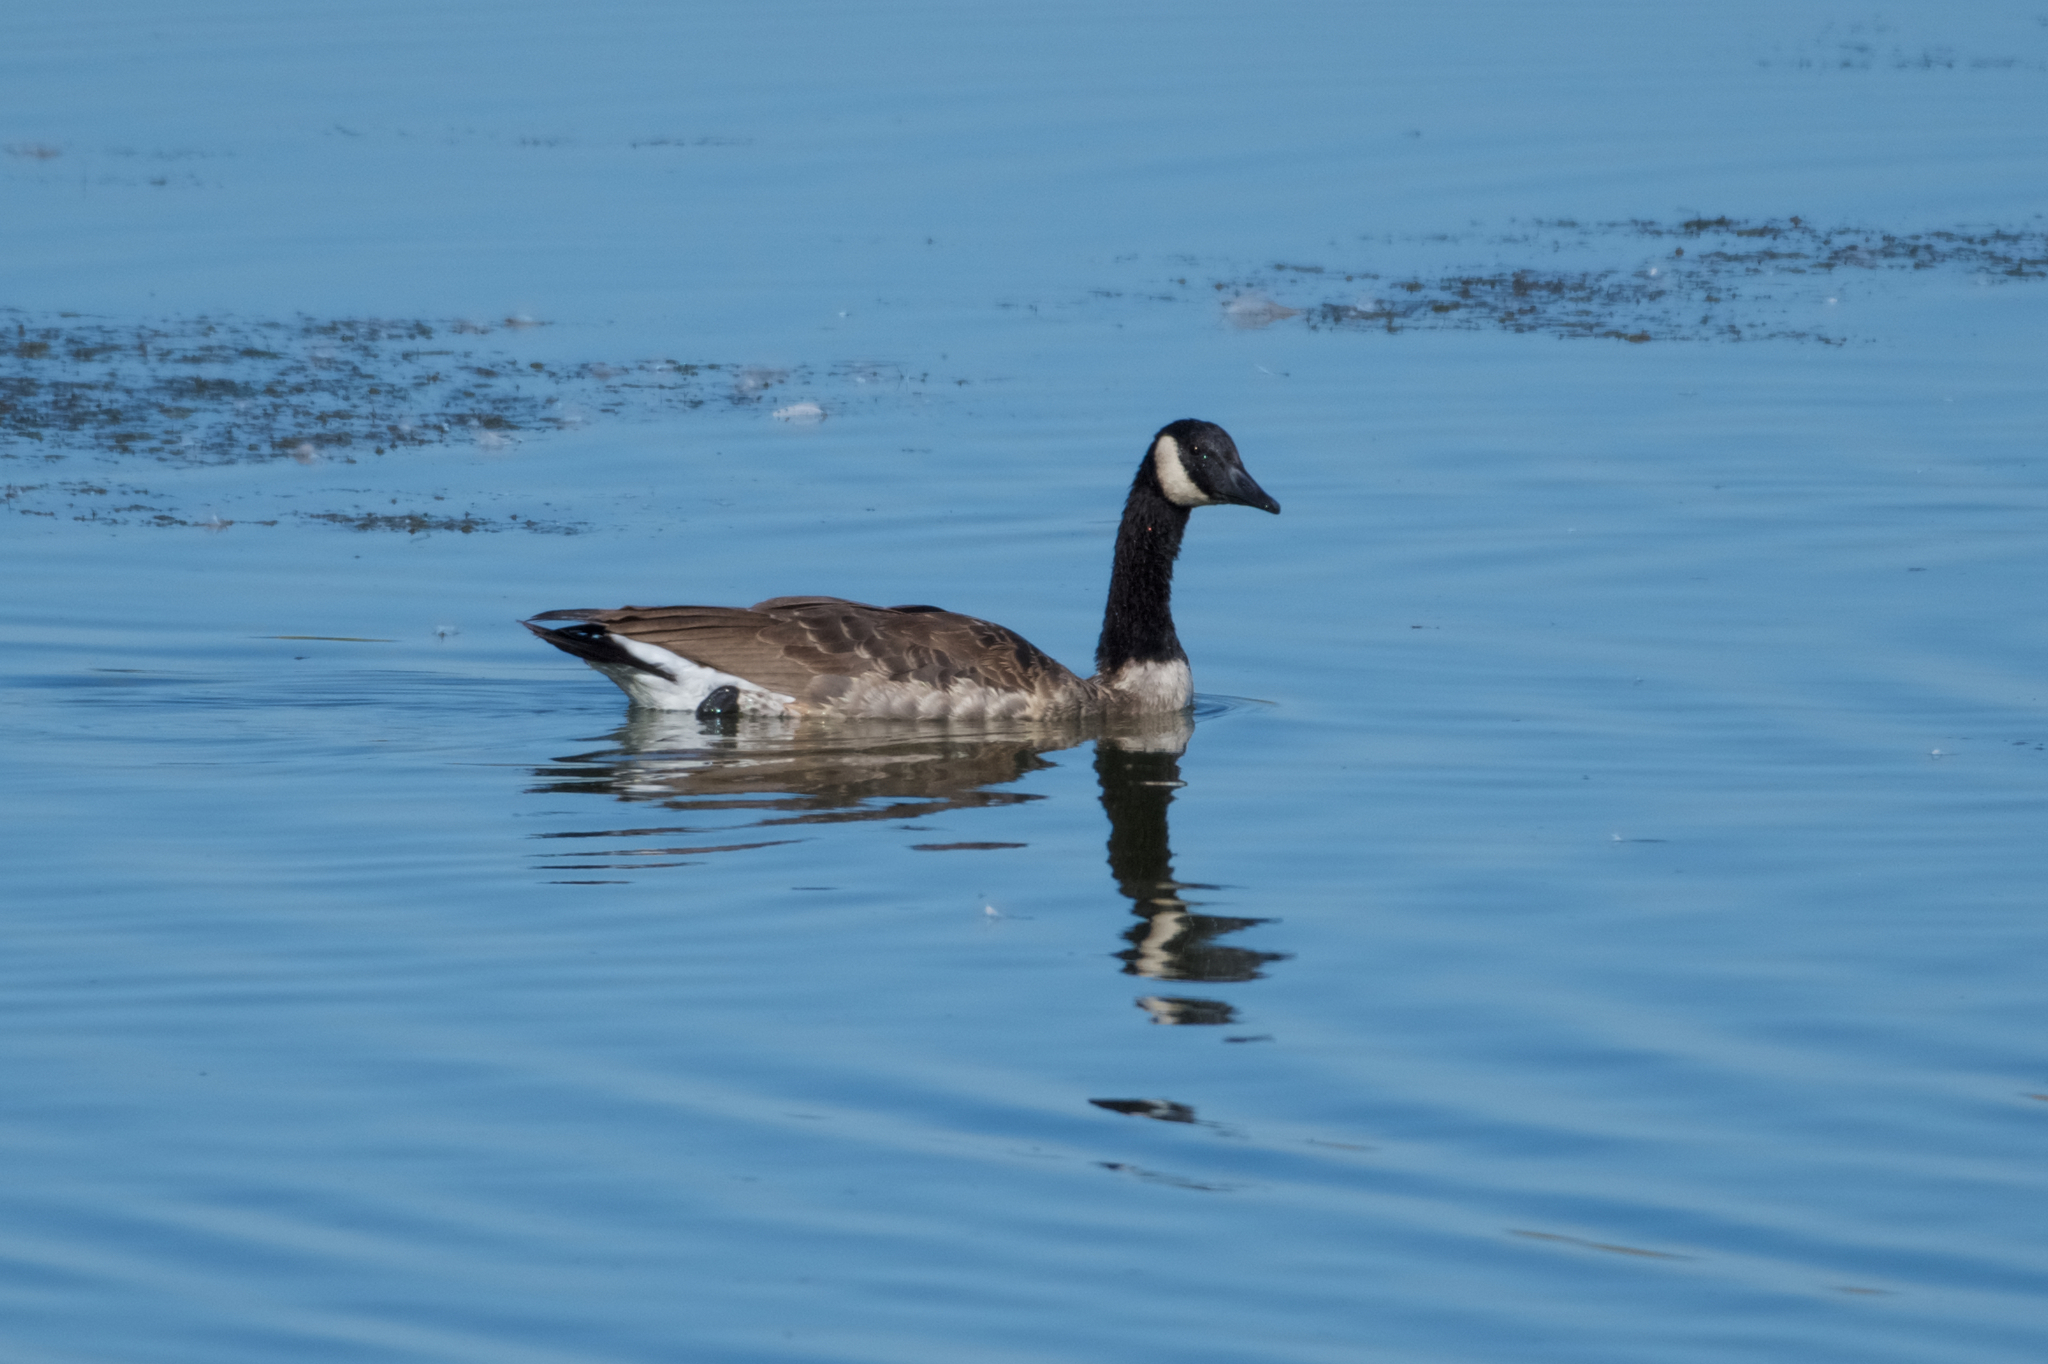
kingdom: Animalia
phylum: Chordata
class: Aves
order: Anseriformes
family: Anatidae
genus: Branta
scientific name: Branta canadensis
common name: Canada goose
